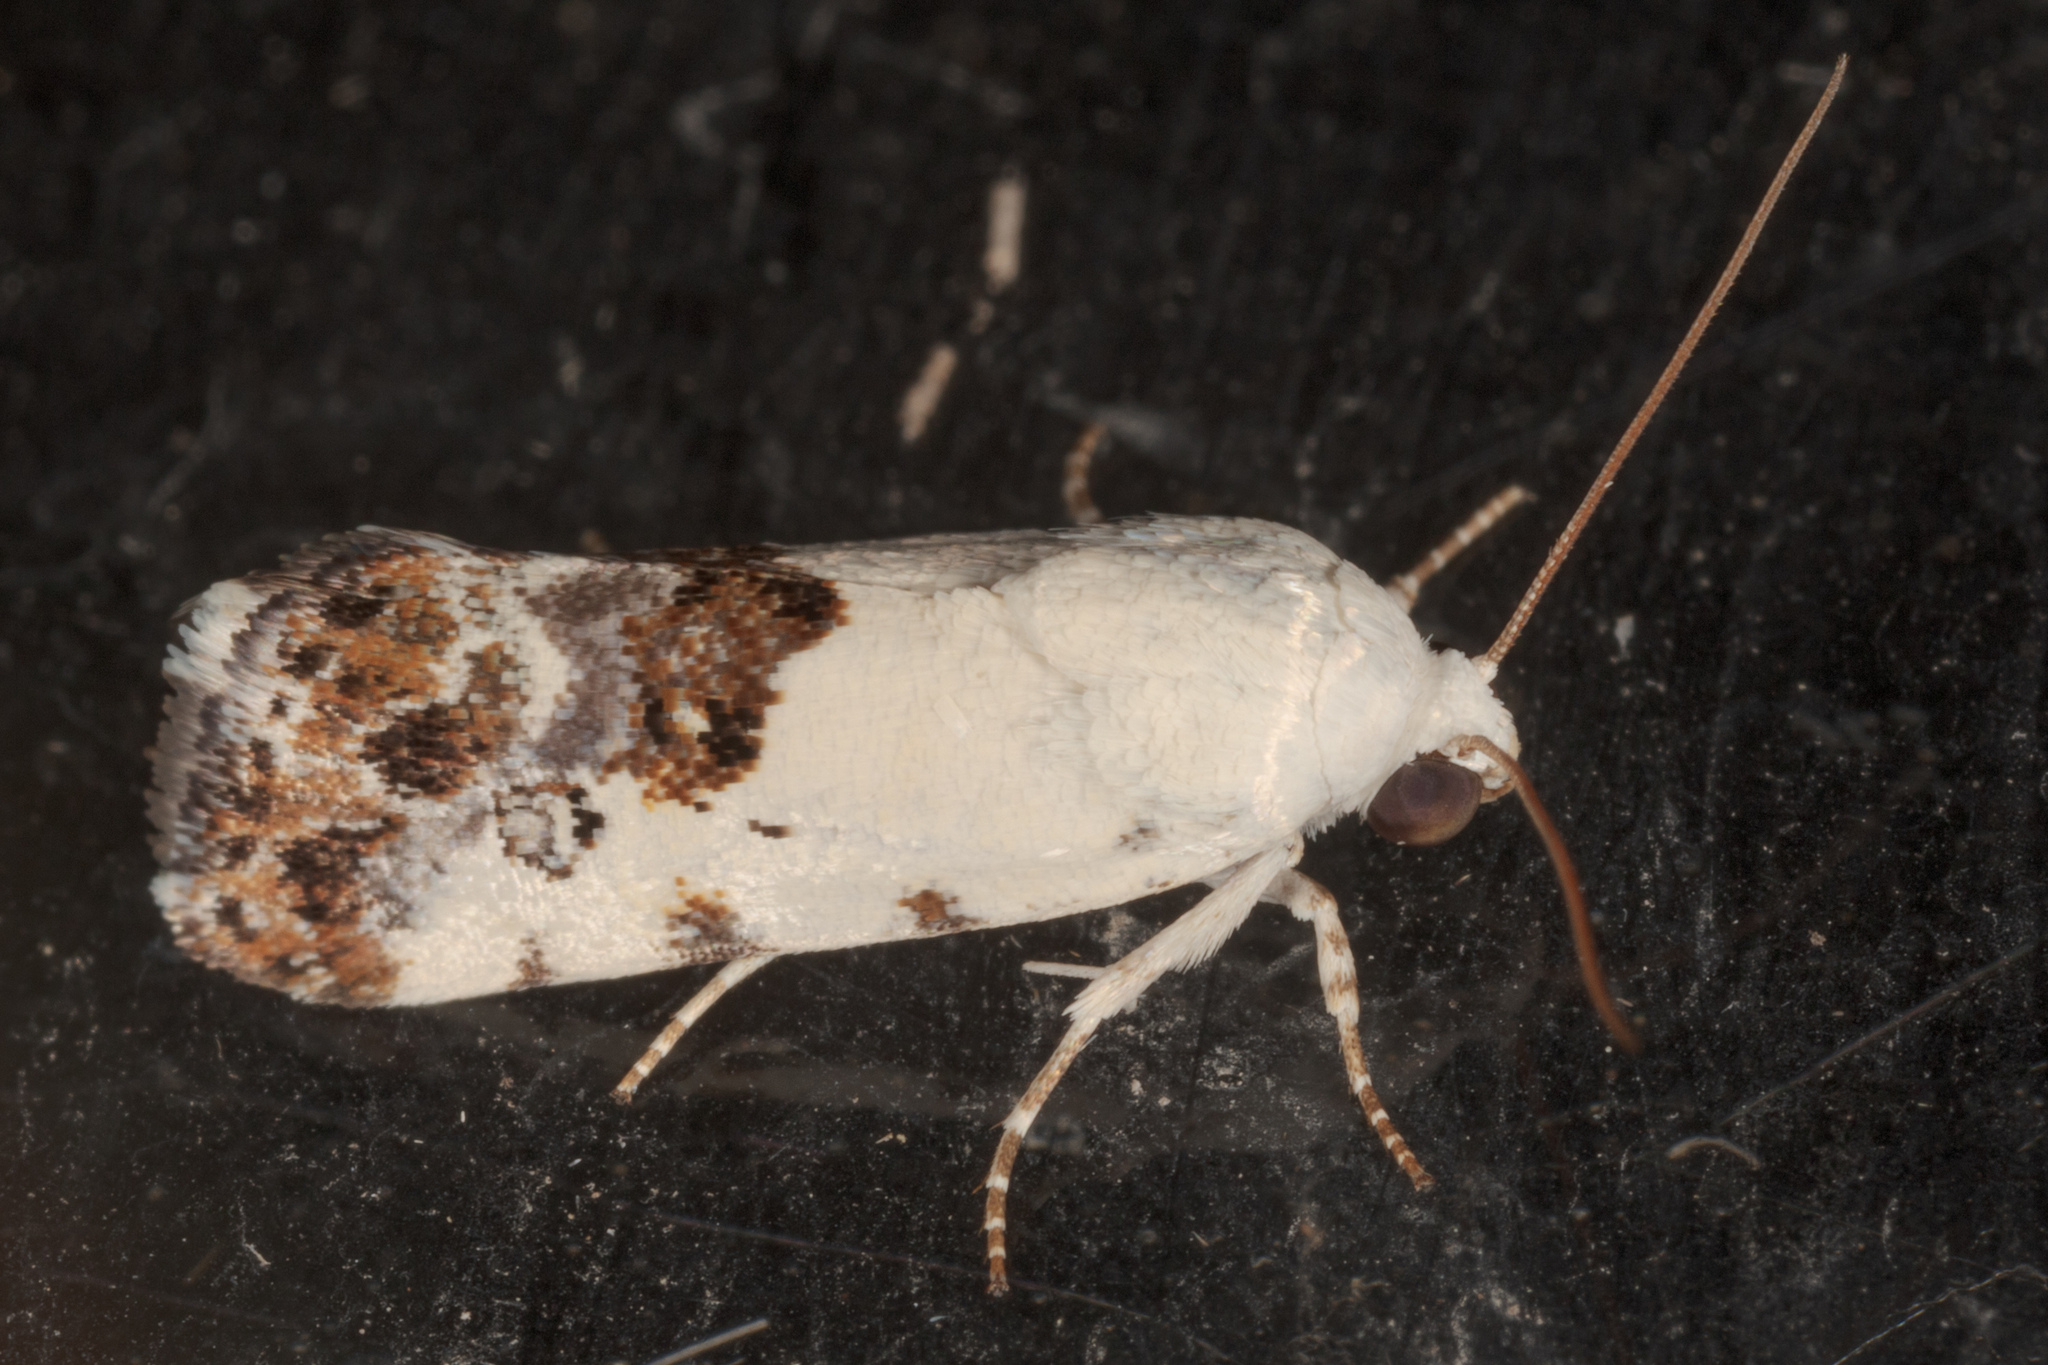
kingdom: Animalia
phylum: Arthropoda
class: Insecta
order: Lepidoptera
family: Noctuidae
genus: Acontia
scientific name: Acontia phecolisca
